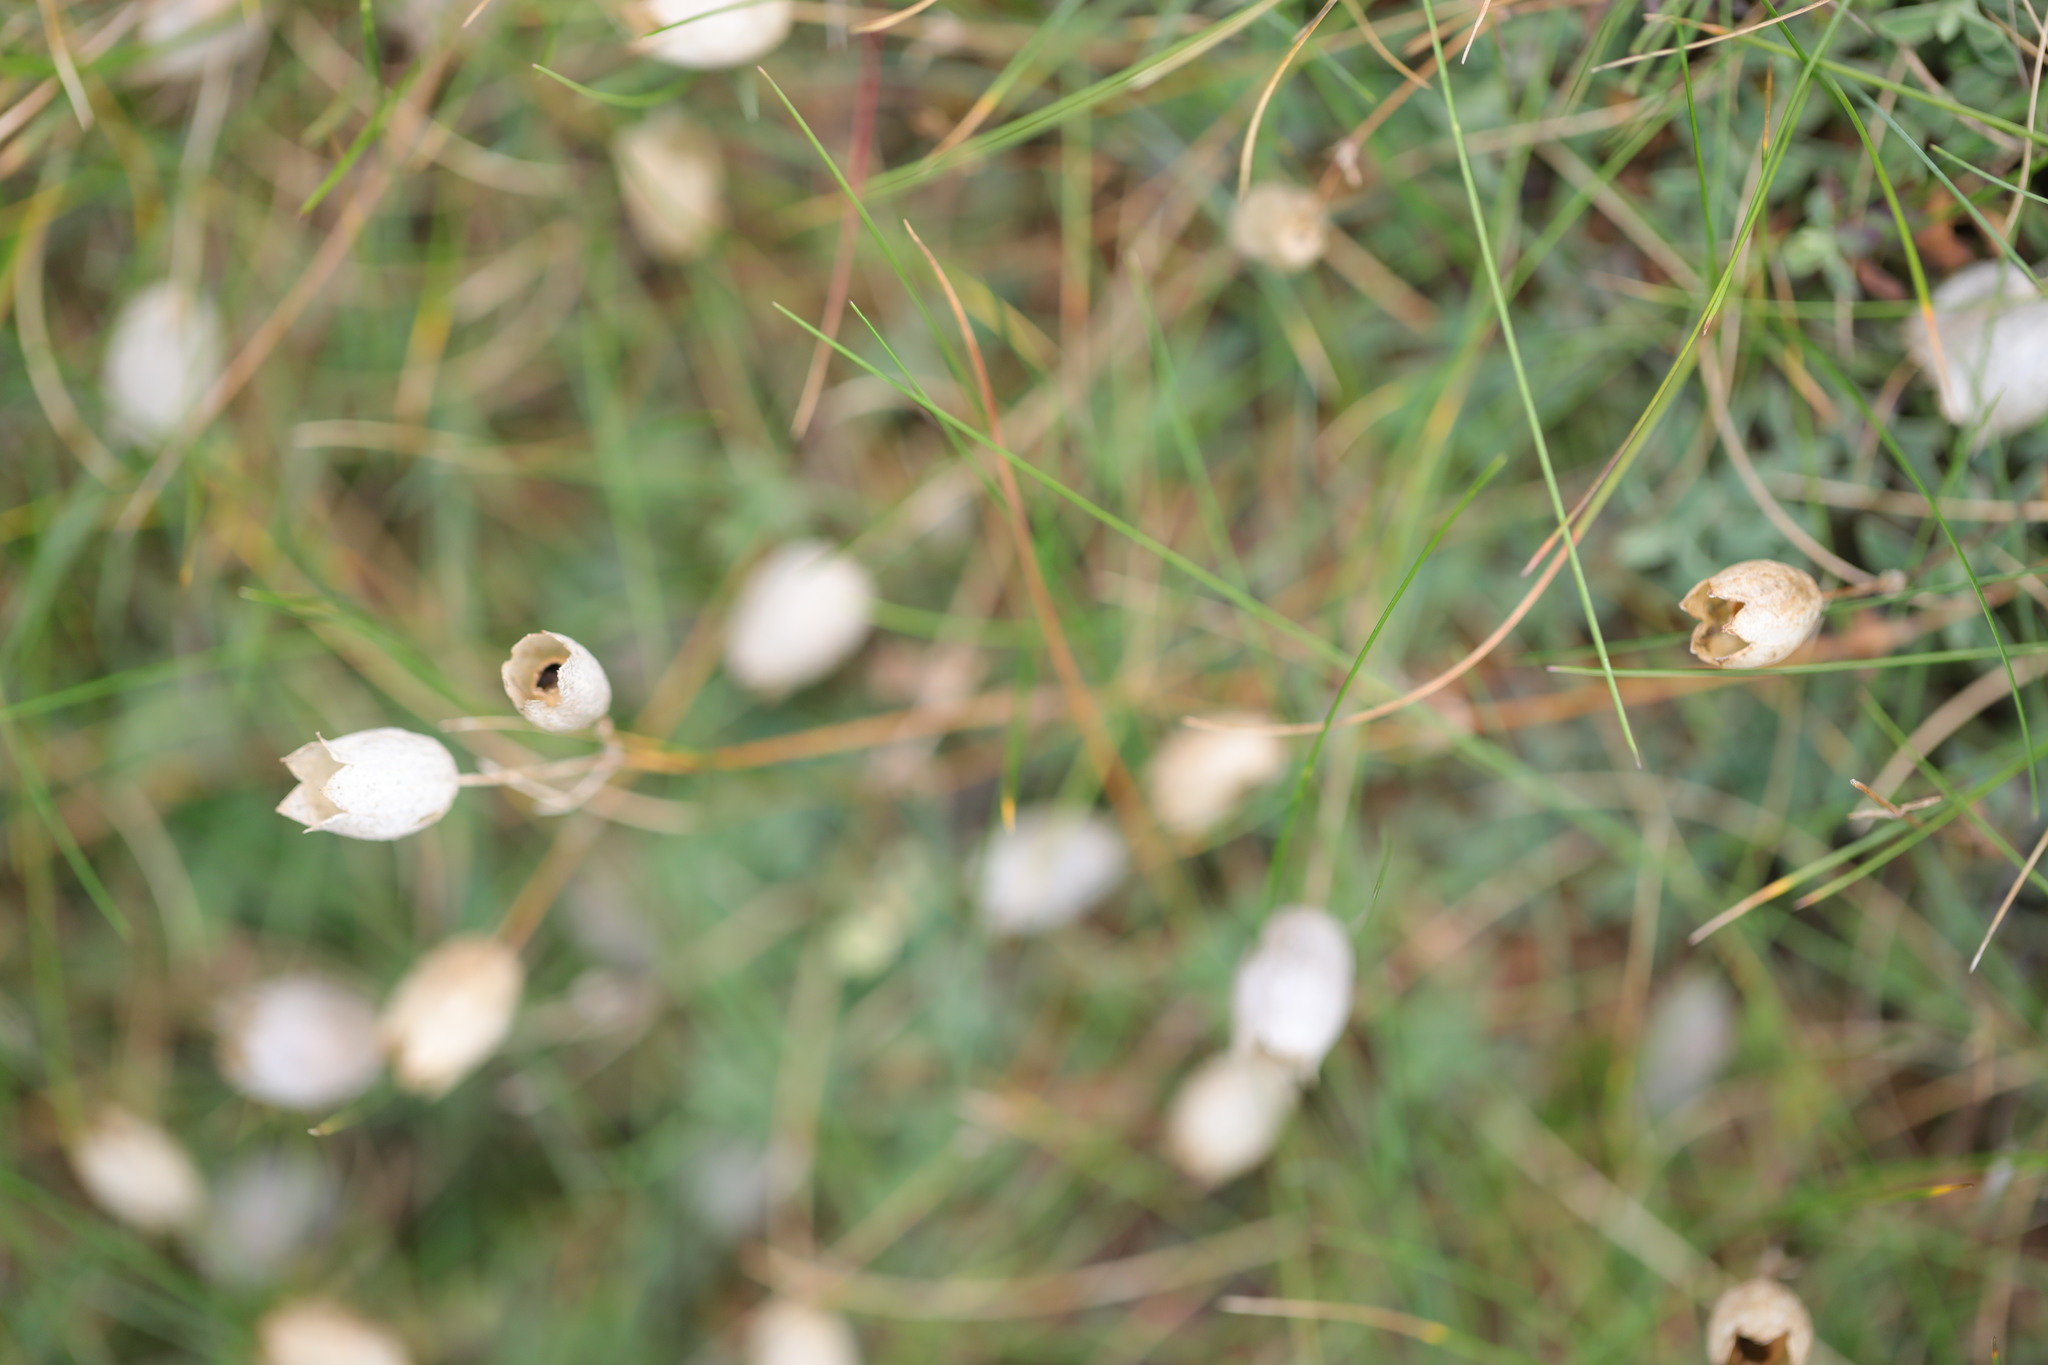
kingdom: Plantae
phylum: Tracheophyta
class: Magnoliopsida
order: Caryophyllales
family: Caryophyllaceae
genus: Silene
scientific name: Silene vulgaris
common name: Bladder campion
